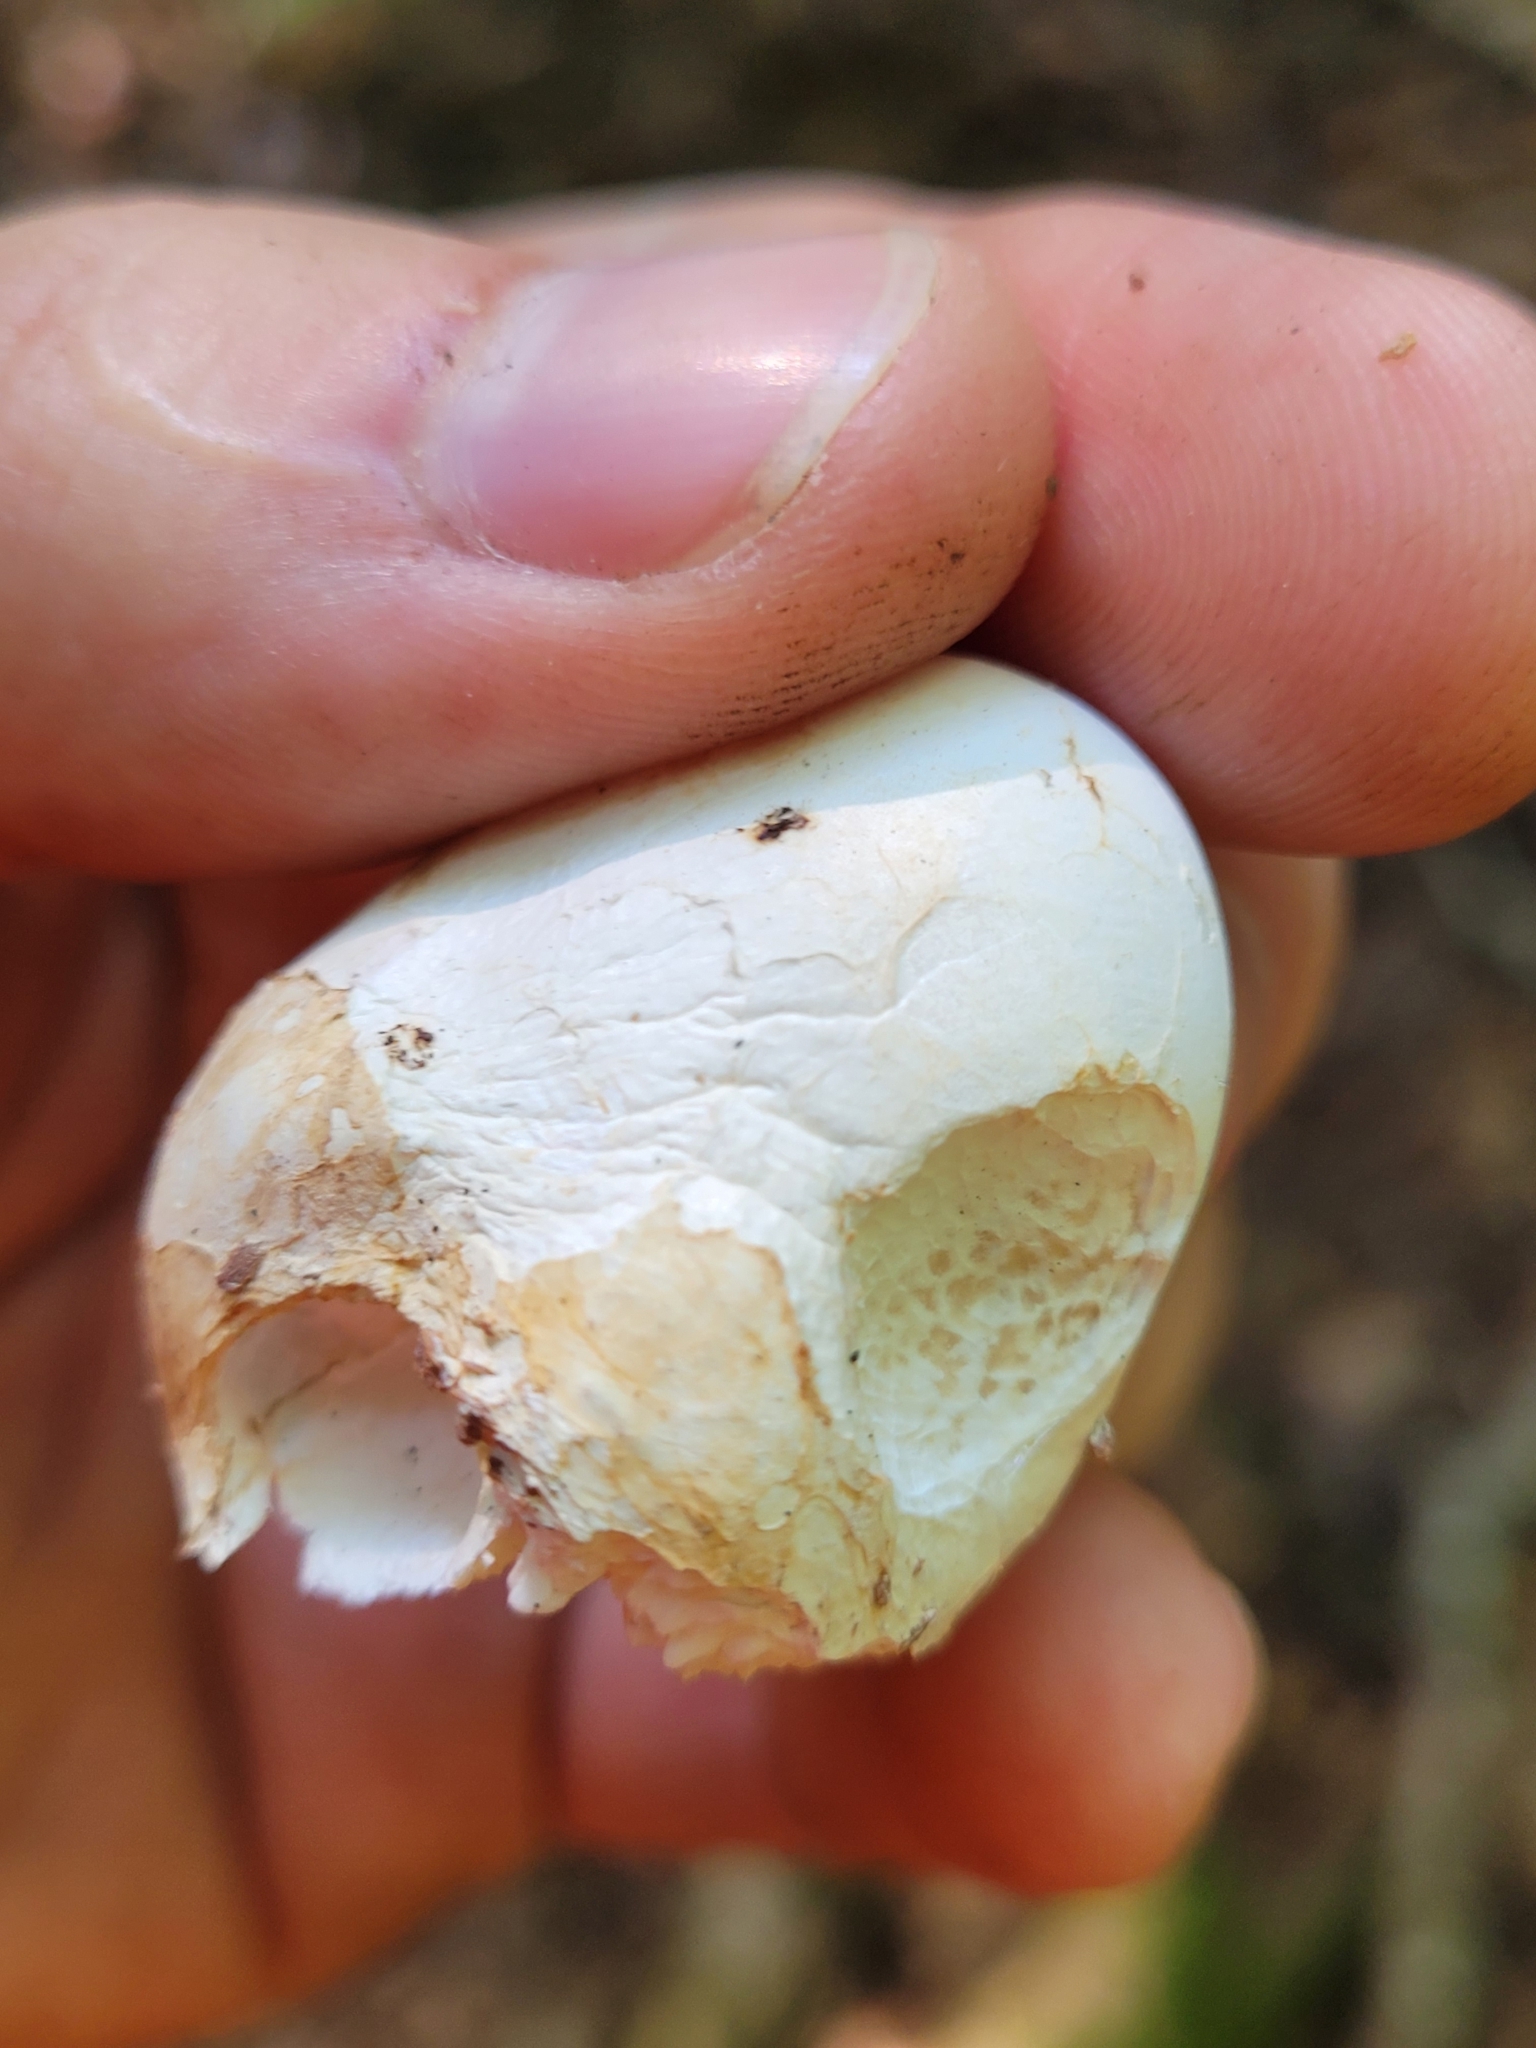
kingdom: Fungi
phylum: Basidiomycota
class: Agaricomycetes
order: Polyporales
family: Fomitopsidaceae
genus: Fomitopsis
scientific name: Fomitopsis betulina
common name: Birch polypore
